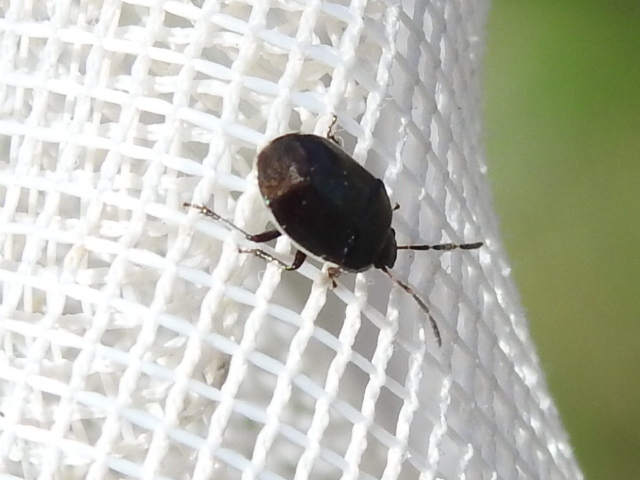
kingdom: Animalia
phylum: Arthropoda
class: Insecta
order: Hemiptera
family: Cydnidae
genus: Sehirus
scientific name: Sehirus cinctus
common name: White-margined burrower bug
